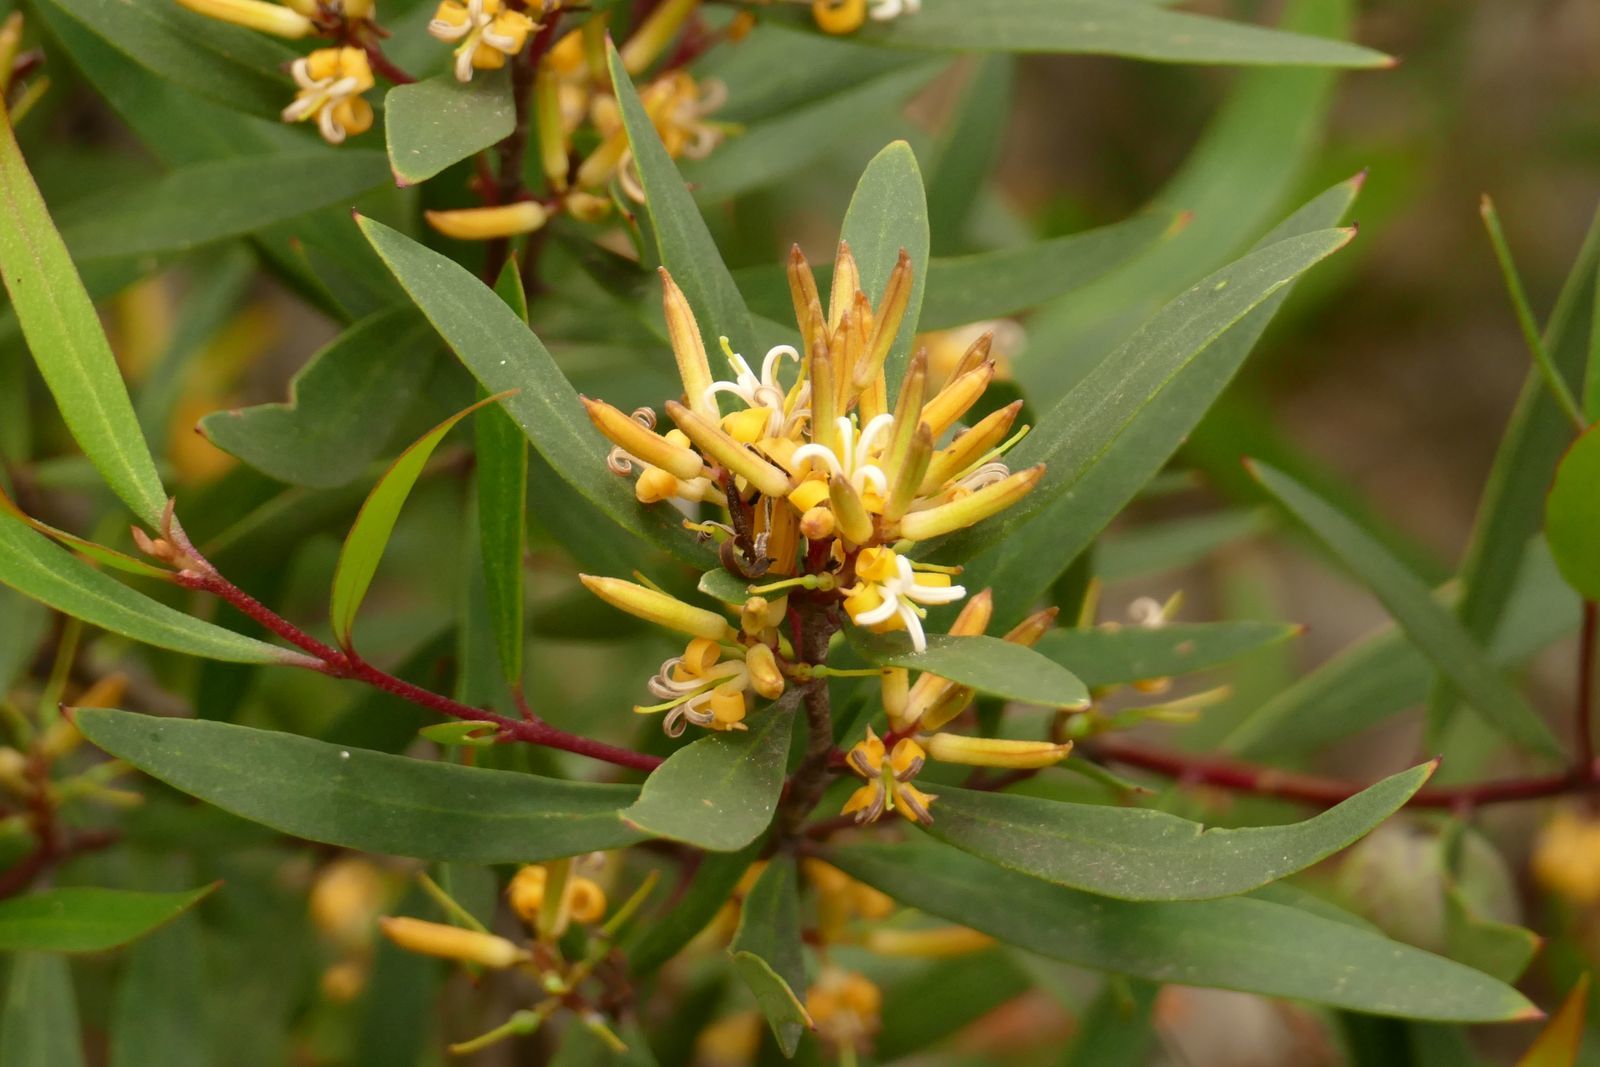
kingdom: Plantae
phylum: Tracheophyta
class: Magnoliopsida
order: Proteales
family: Proteaceae
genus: Persoonia
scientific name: Persoonia linearis
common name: Narrow-leaf geebung
